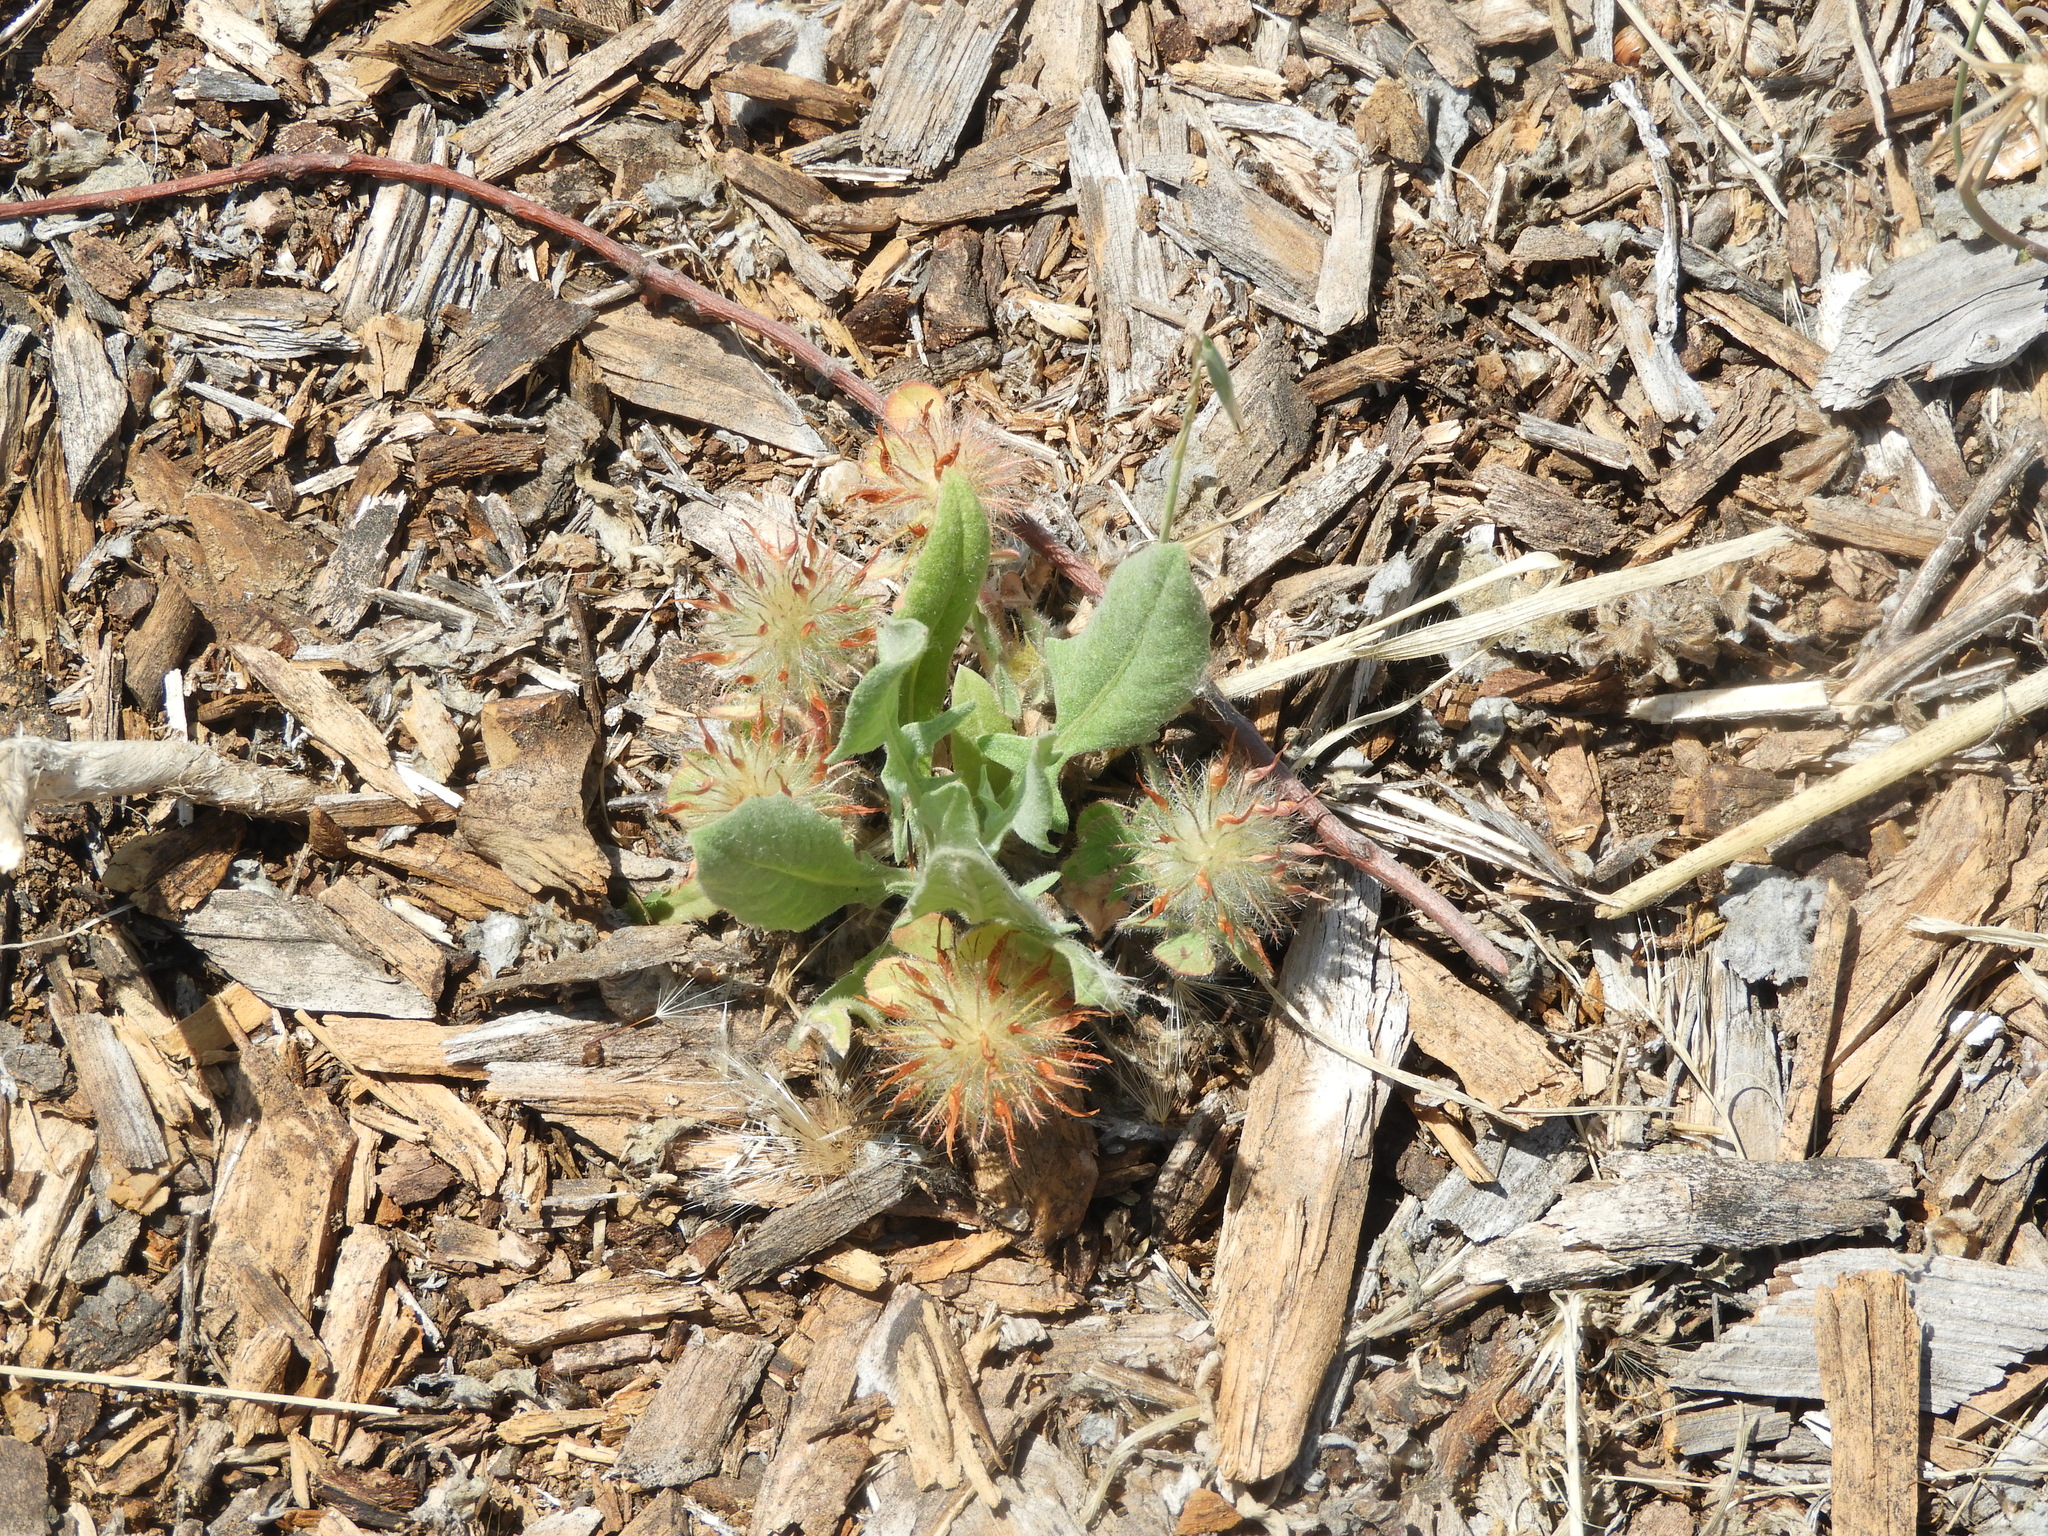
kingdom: Plantae
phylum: Tracheophyta
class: Magnoliopsida
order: Fabales
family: Fabaceae
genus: Trifolium
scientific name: Trifolium hirtum
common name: Rose clover
